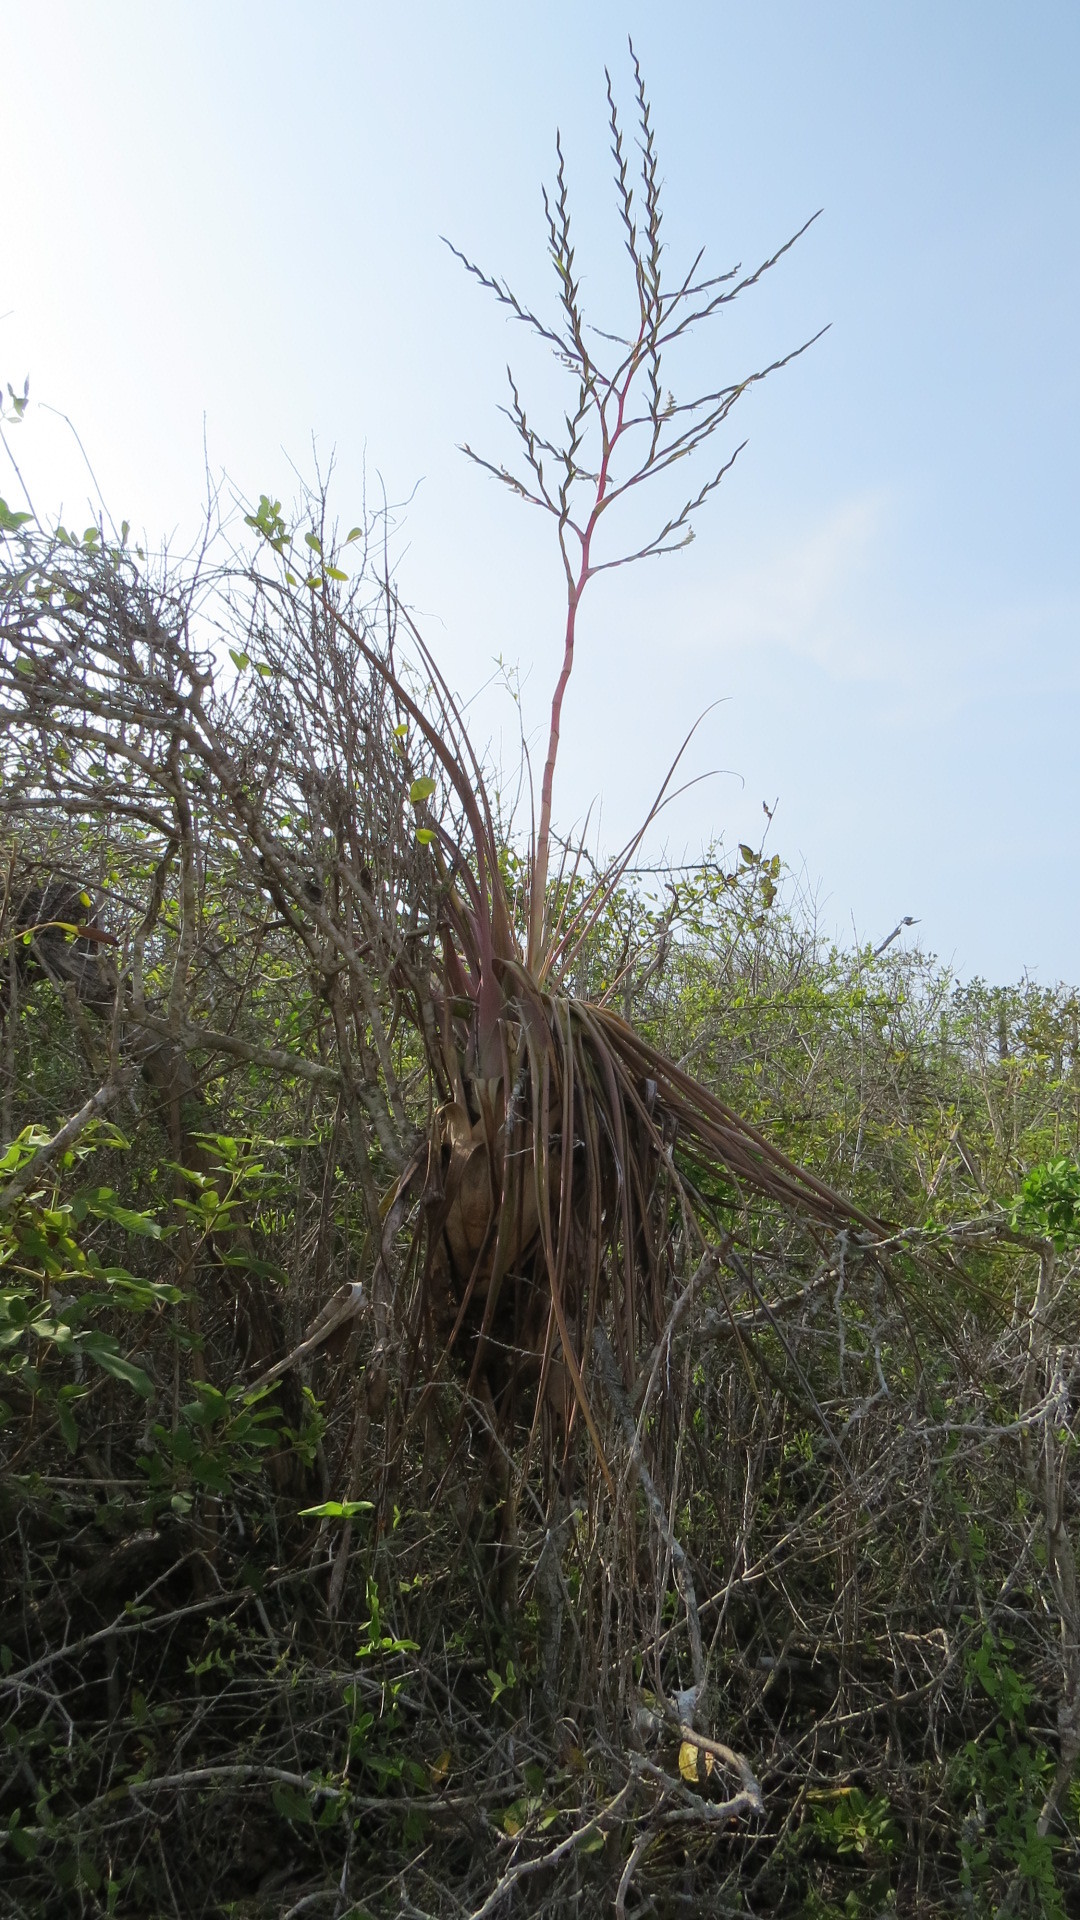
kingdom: Plantae
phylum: Tracheophyta
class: Liliopsida
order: Poales
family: Bromeliaceae
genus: Tillandsia
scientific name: Tillandsia huamelulaensis
